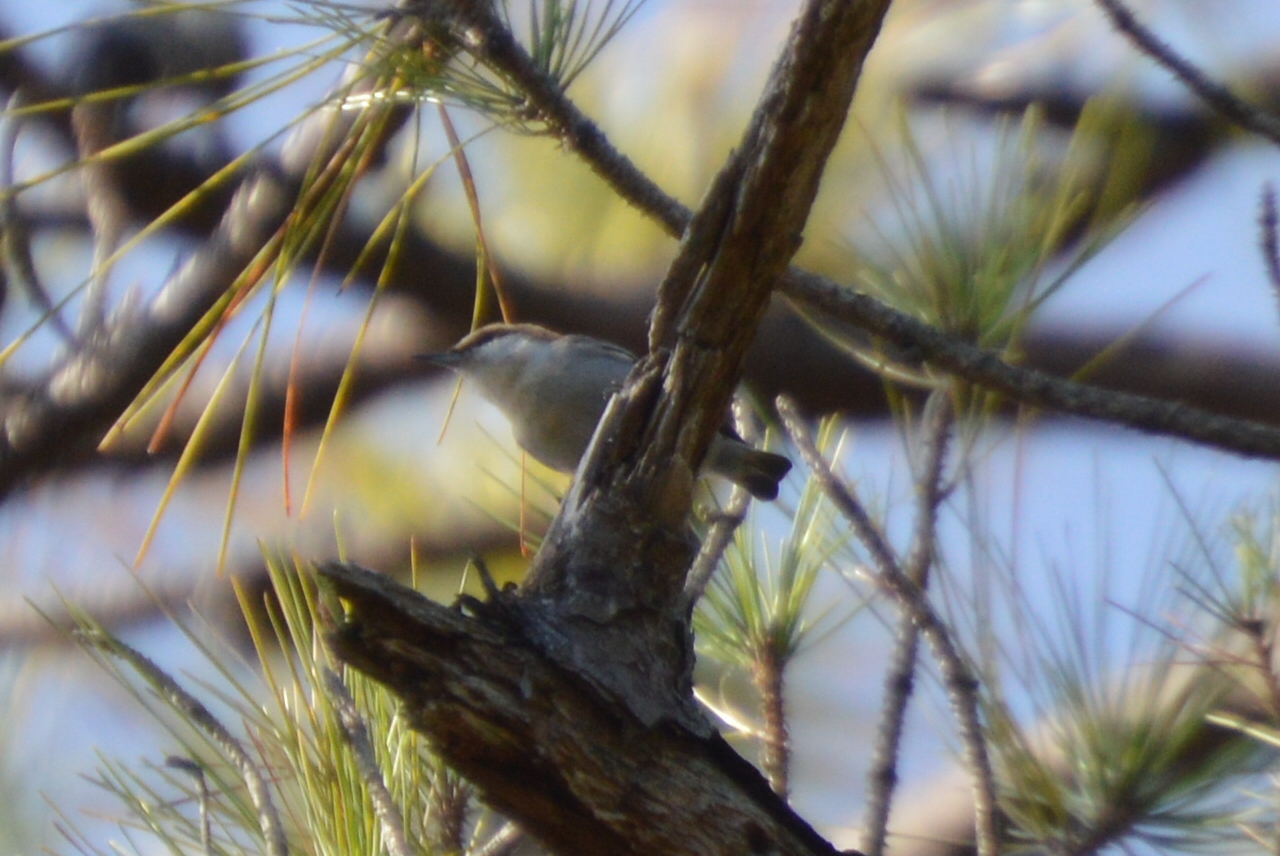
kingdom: Animalia
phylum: Chordata
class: Aves
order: Passeriformes
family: Sittidae
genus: Sitta
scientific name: Sitta pusilla
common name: Brown-headed nuthatch
